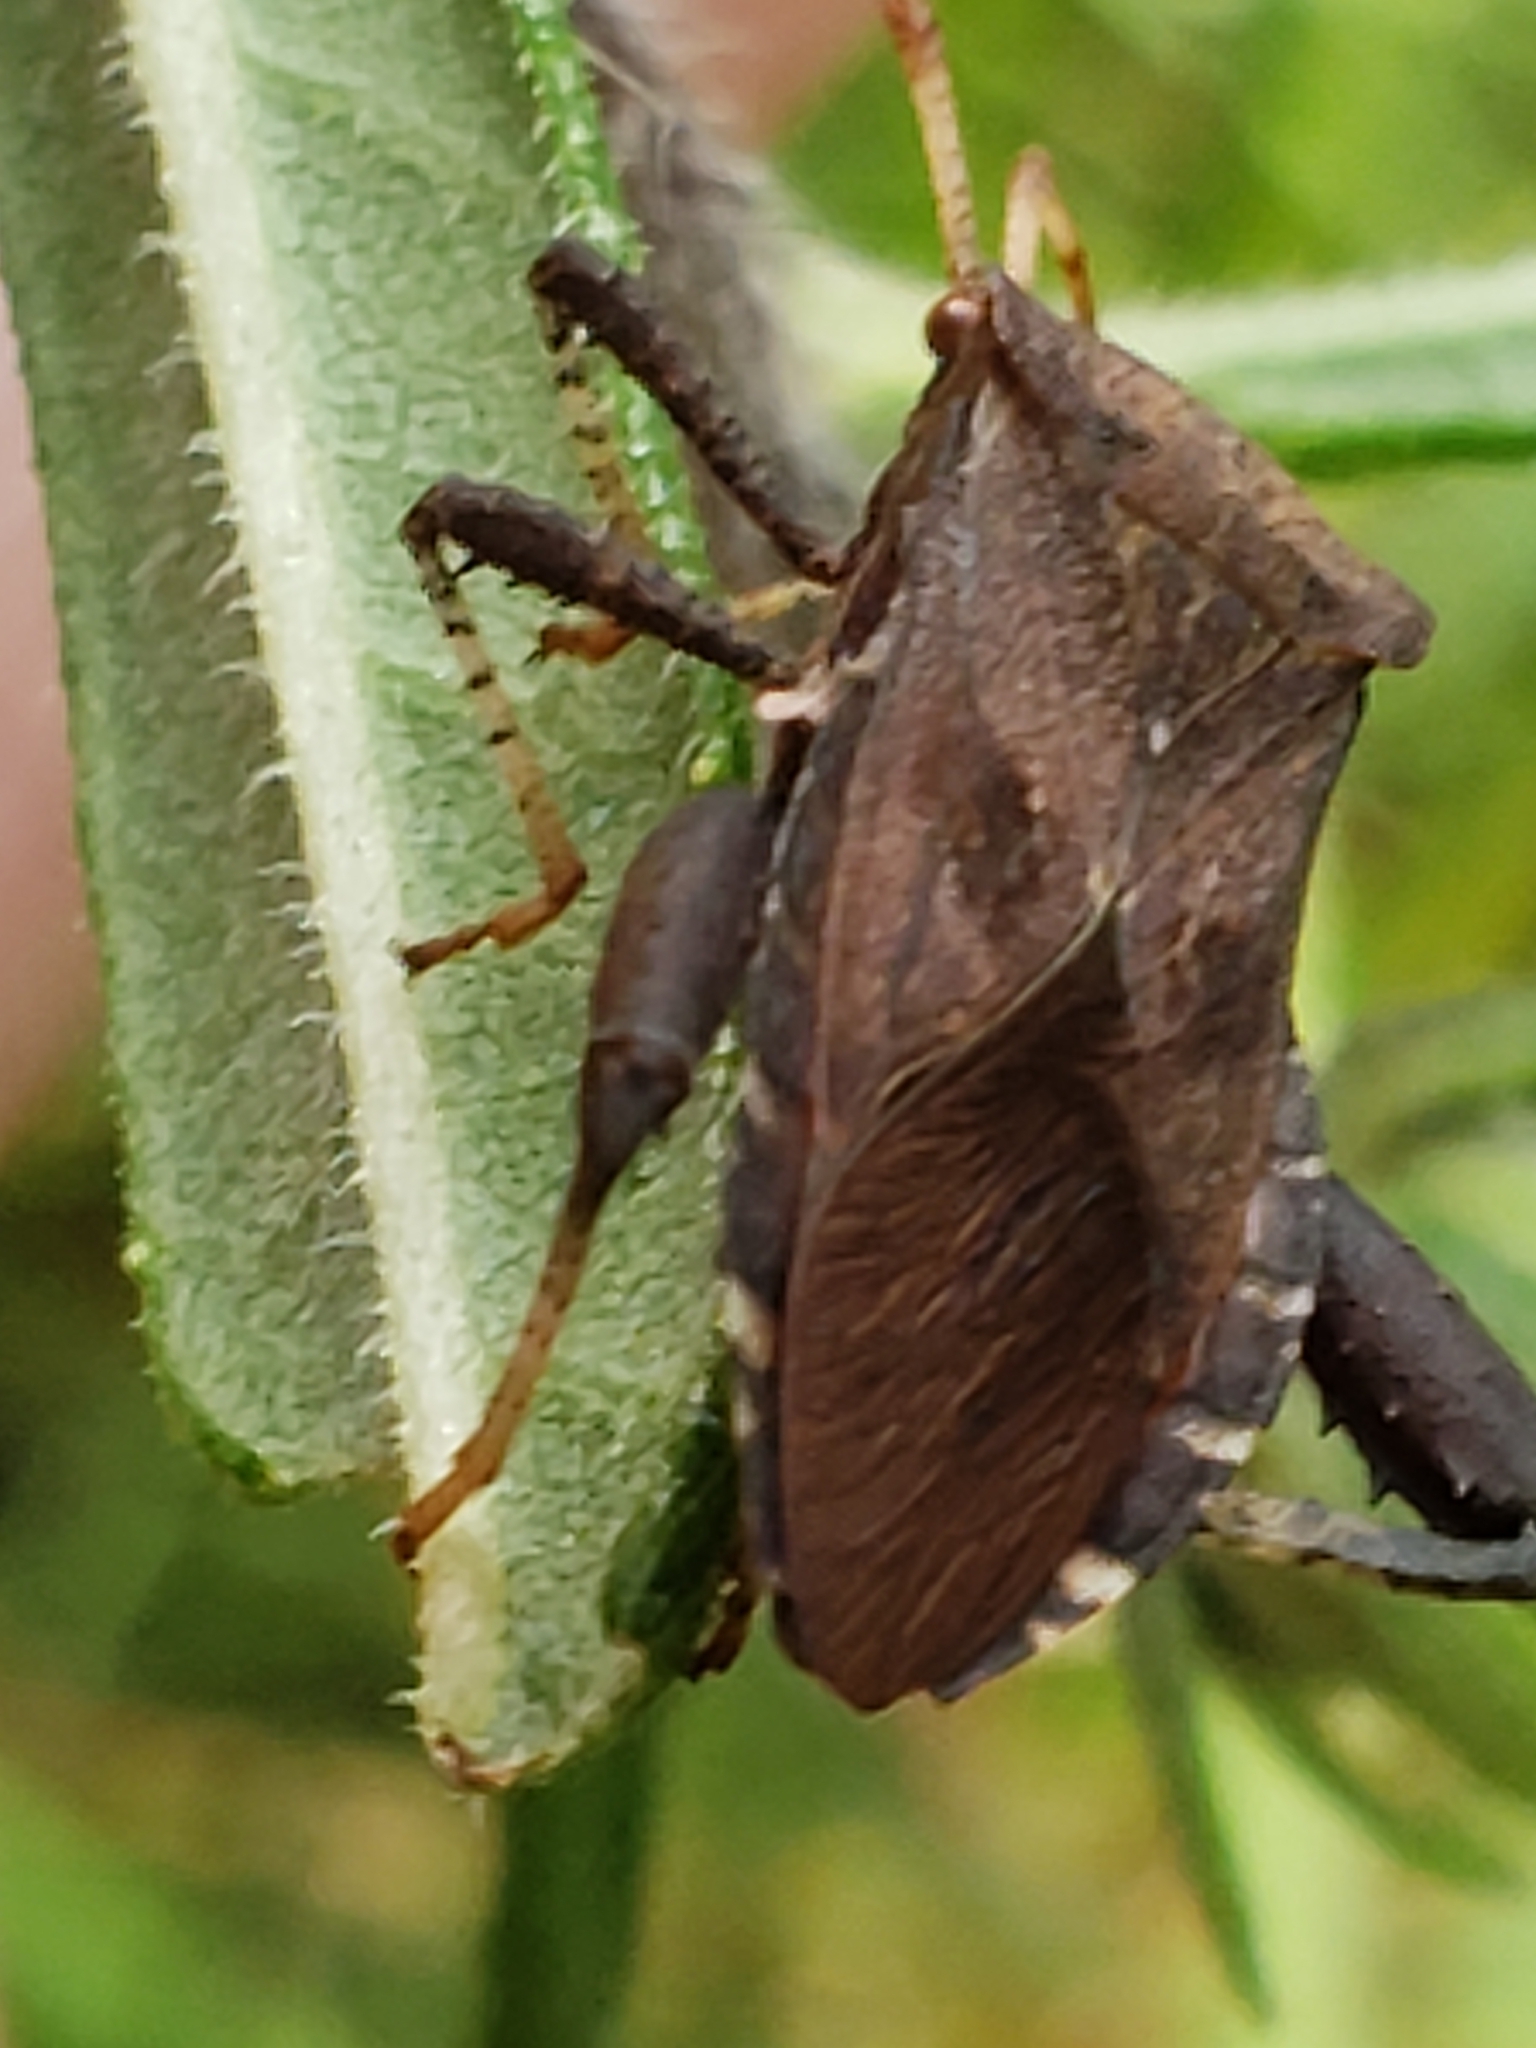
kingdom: Animalia
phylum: Arthropoda
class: Insecta
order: Hemiptera
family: Coreidae
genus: Euthochtha
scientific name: Euthochtha galeator
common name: Helmeted squash bug
